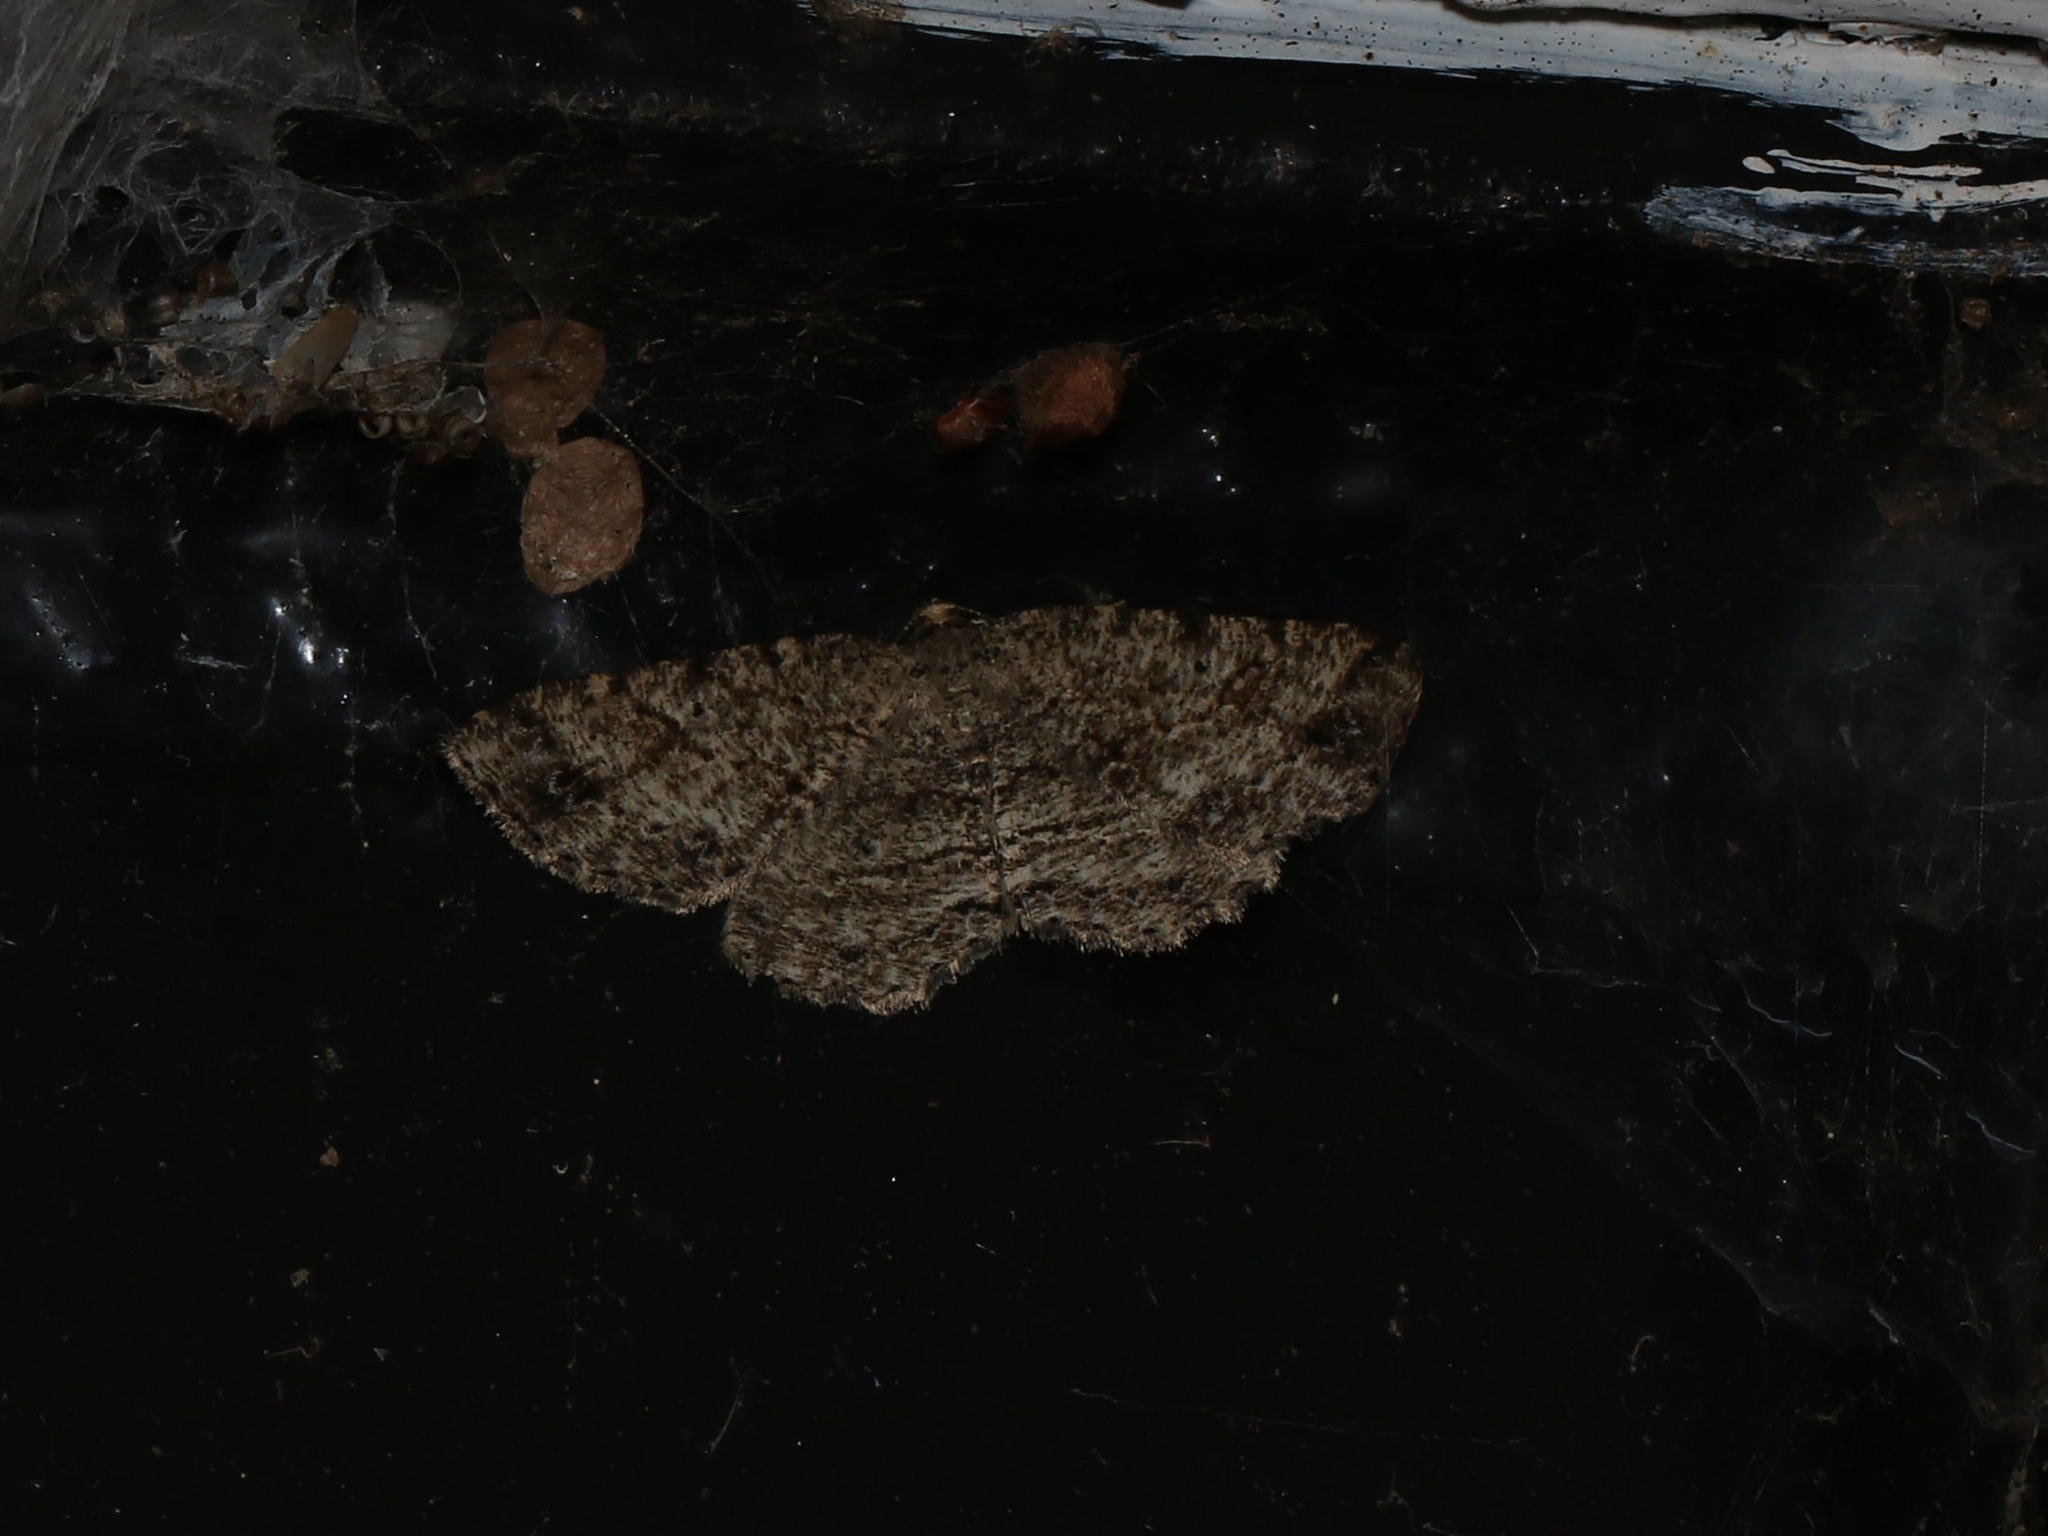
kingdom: Animalia
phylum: Arthropoda
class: Insecta
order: Lepidoptera
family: Geometridae
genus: Melanolophia
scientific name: Melanolophia canadaria
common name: Canadian melanolophia
